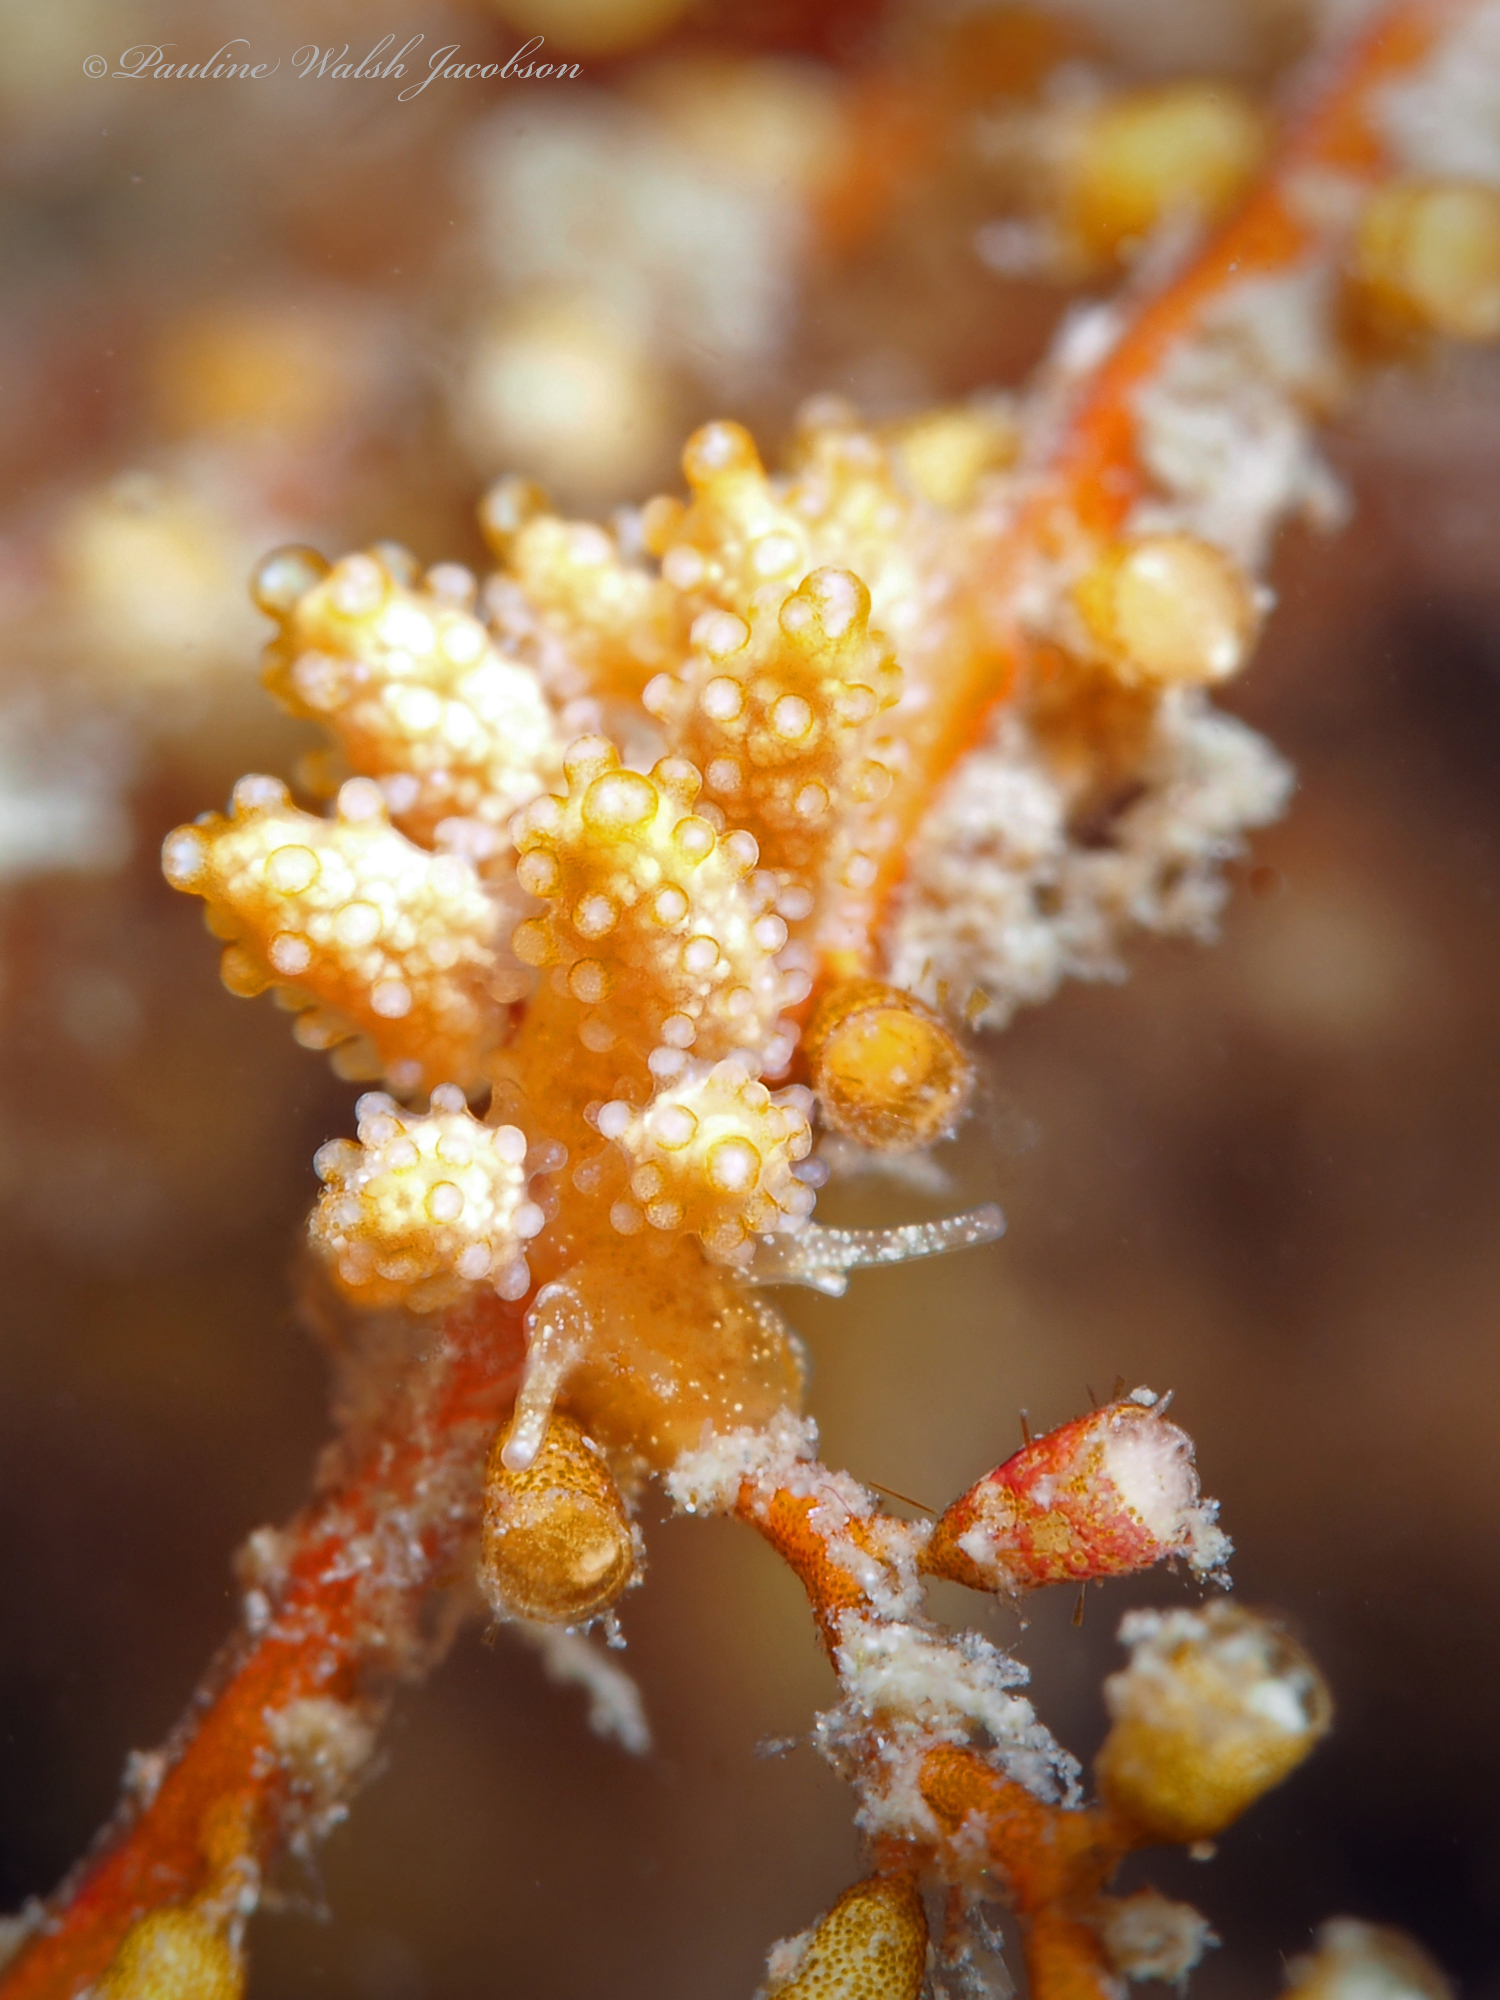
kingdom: Animalia
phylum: Mollusca
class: Gastropoda
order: Nudibranchia
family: Dotidae
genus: Doto
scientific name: Doto torrelavega
